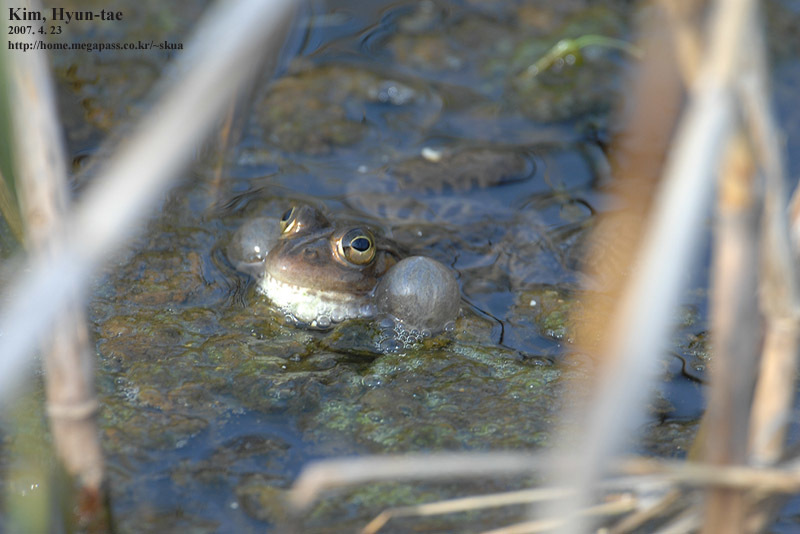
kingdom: Animalia
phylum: Chordata
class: Amphibia
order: Anura
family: Ranidae
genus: Pelophylax
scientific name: Pelophylax nigromaculatus
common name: Black-spotted pond frog
